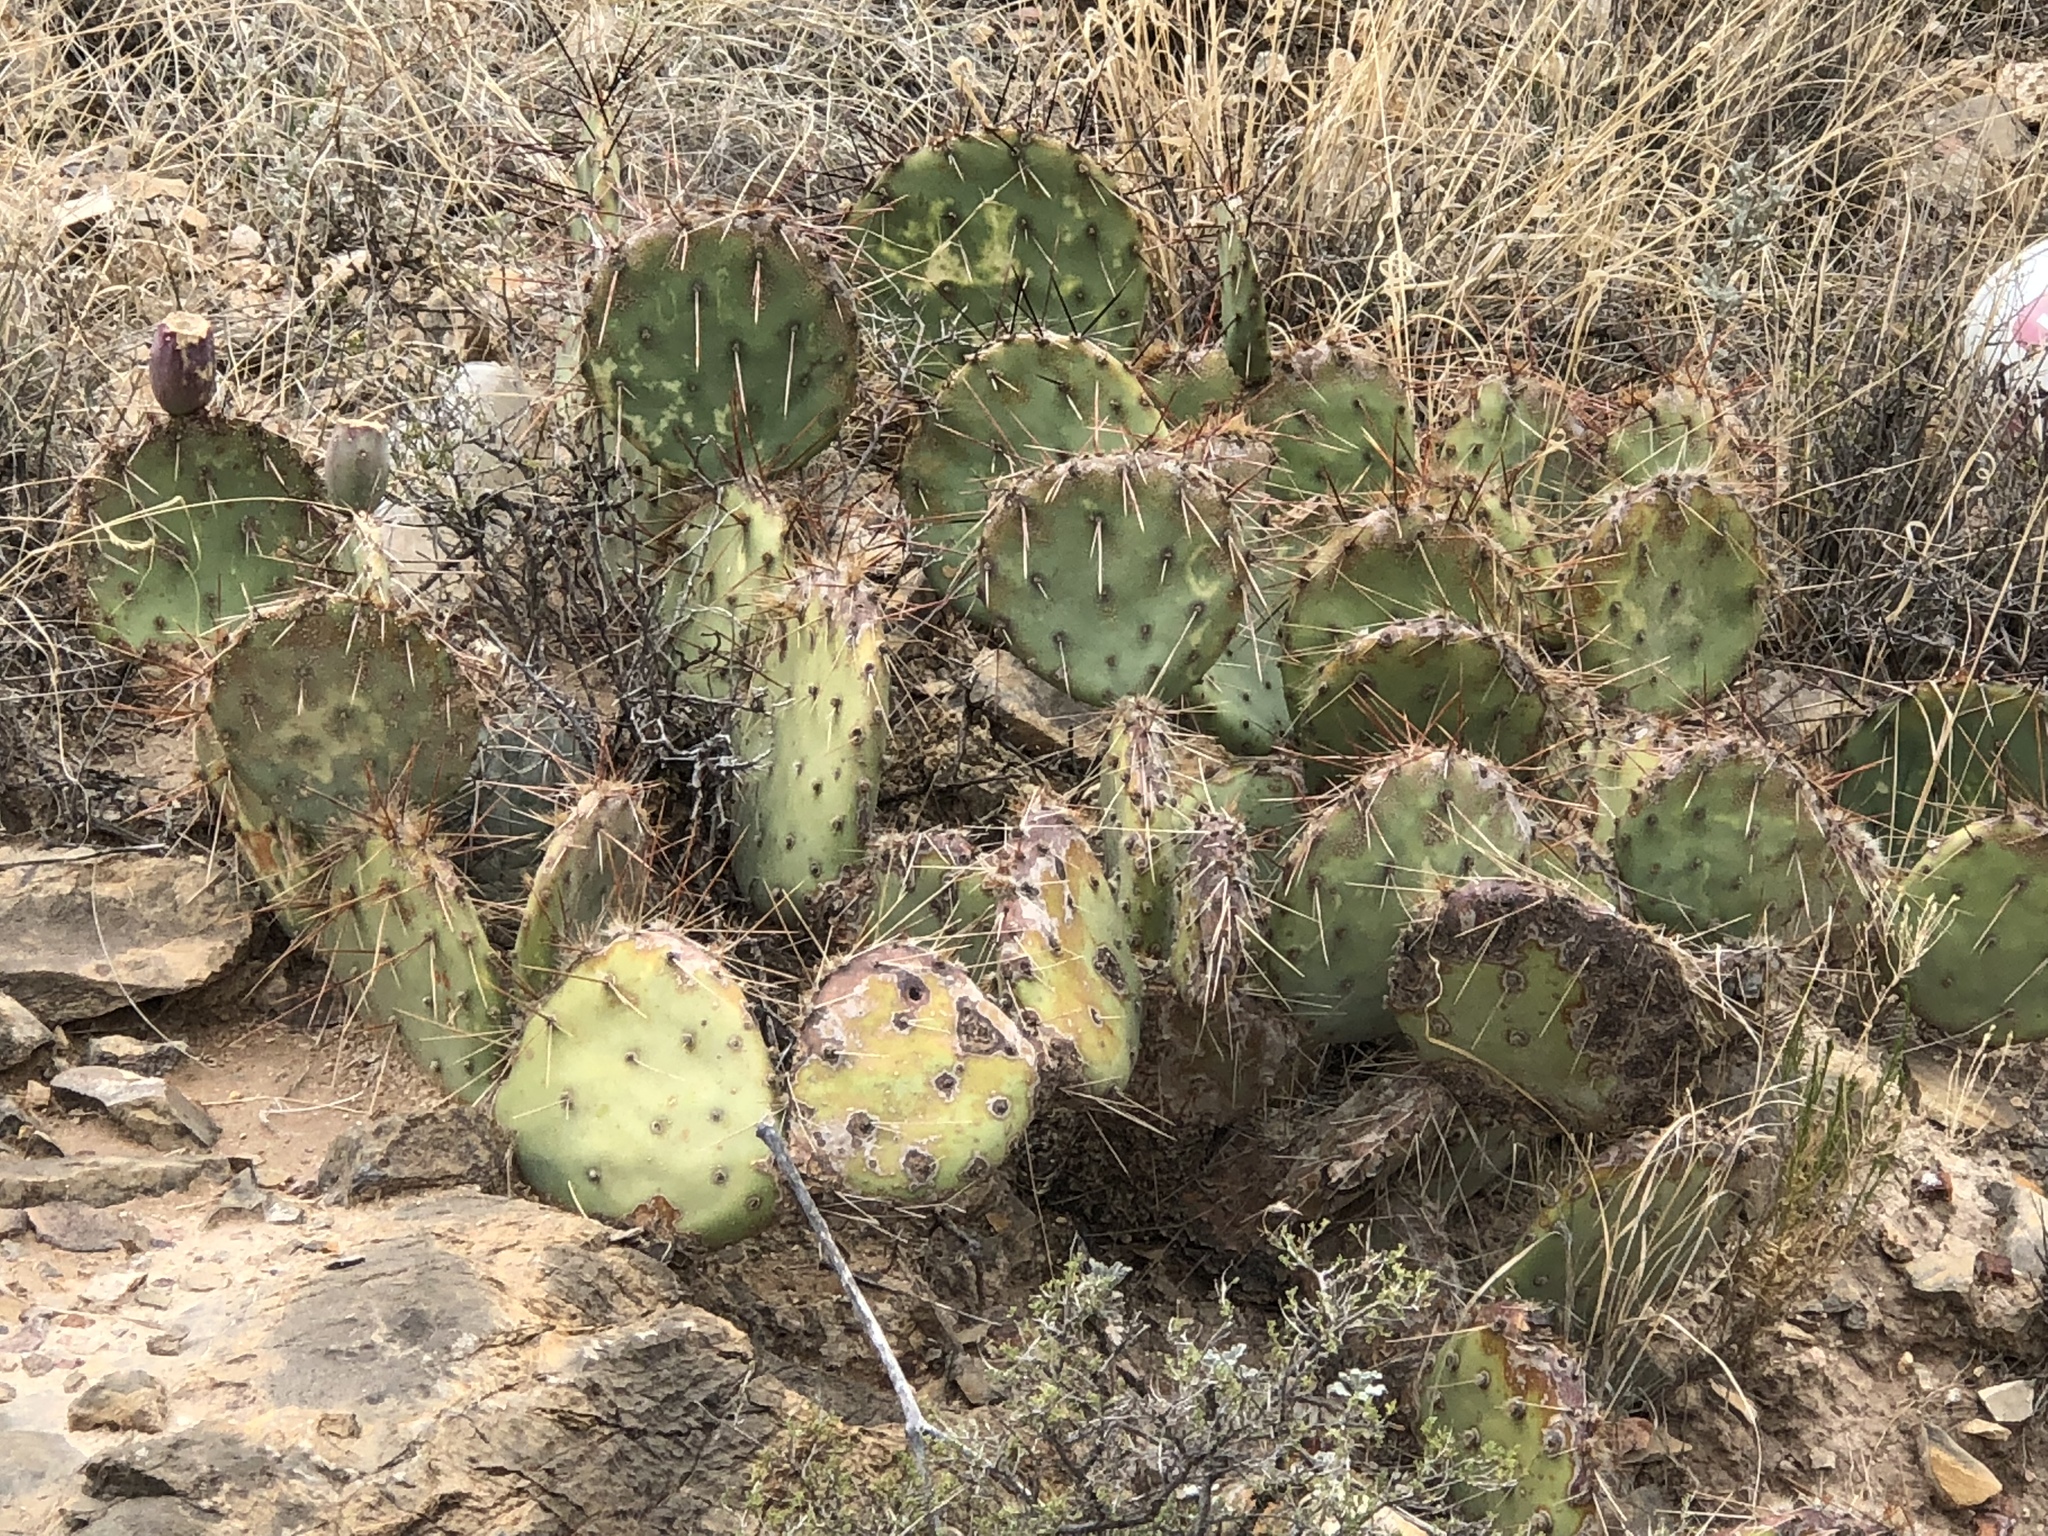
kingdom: Plantae
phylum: Tracheophyta
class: Magnoliopsida
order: Caryophyllales
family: Cactaceae
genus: Opuntia
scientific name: Opuntia phaeacantha
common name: New mexico prickly-pear
